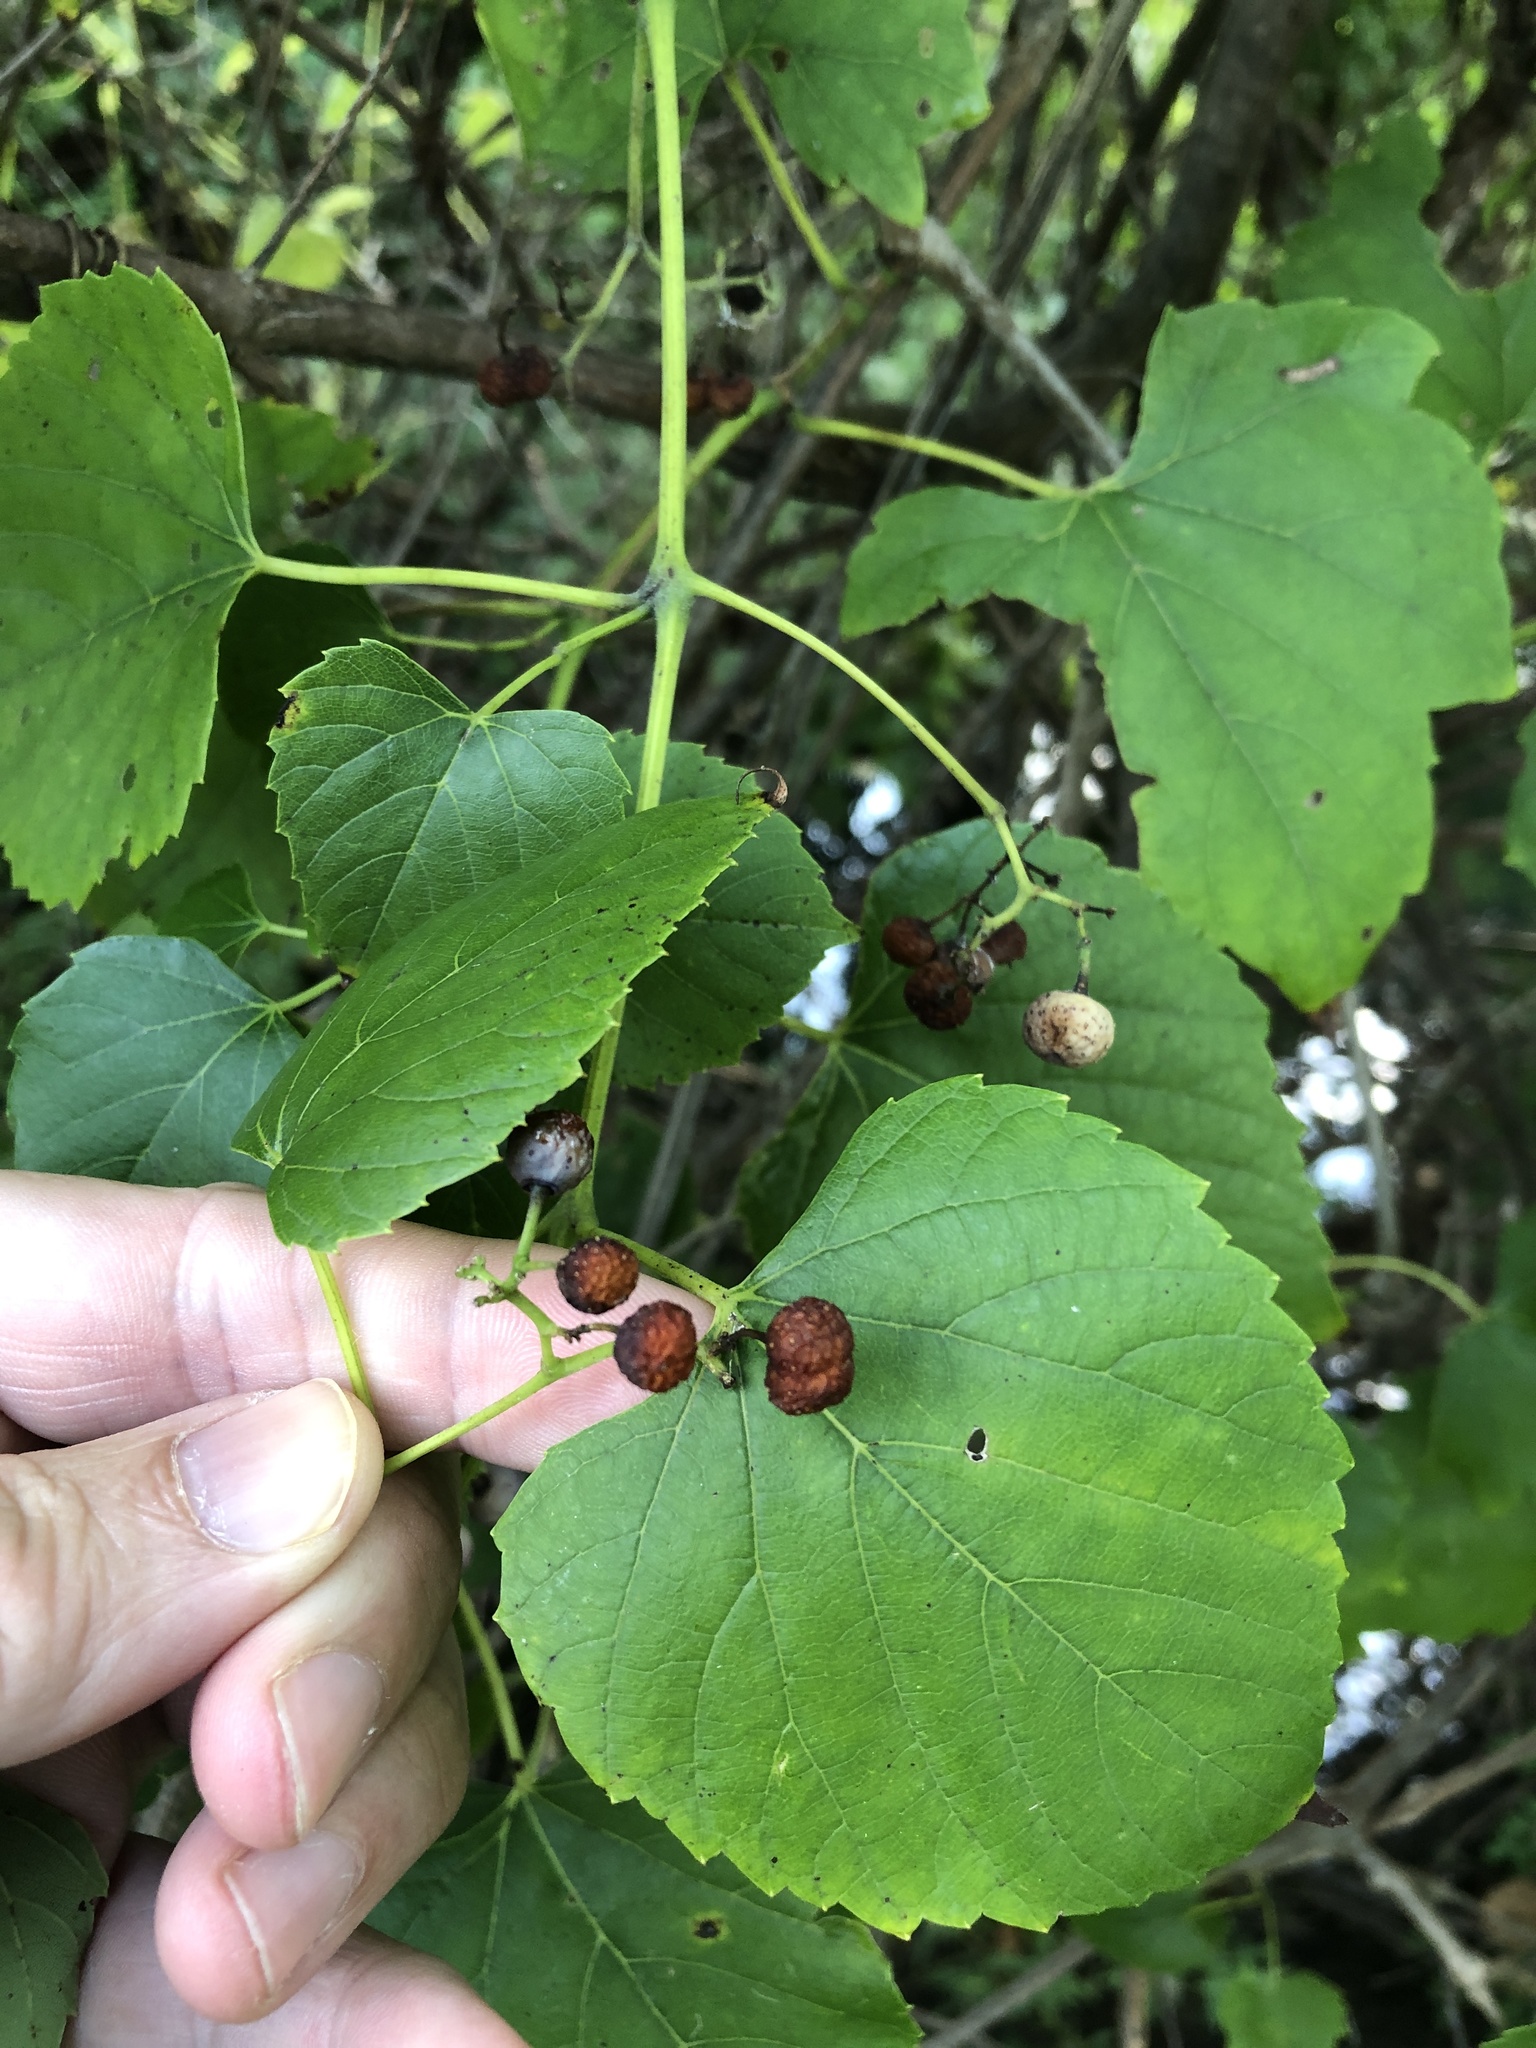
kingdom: Plantae
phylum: Tracheophyta
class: Magnoliopsida
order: Vitales
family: Vitaceae
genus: Ampelopsis
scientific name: Ampelopsis cordata
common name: Heart-leaf ampelopsis
